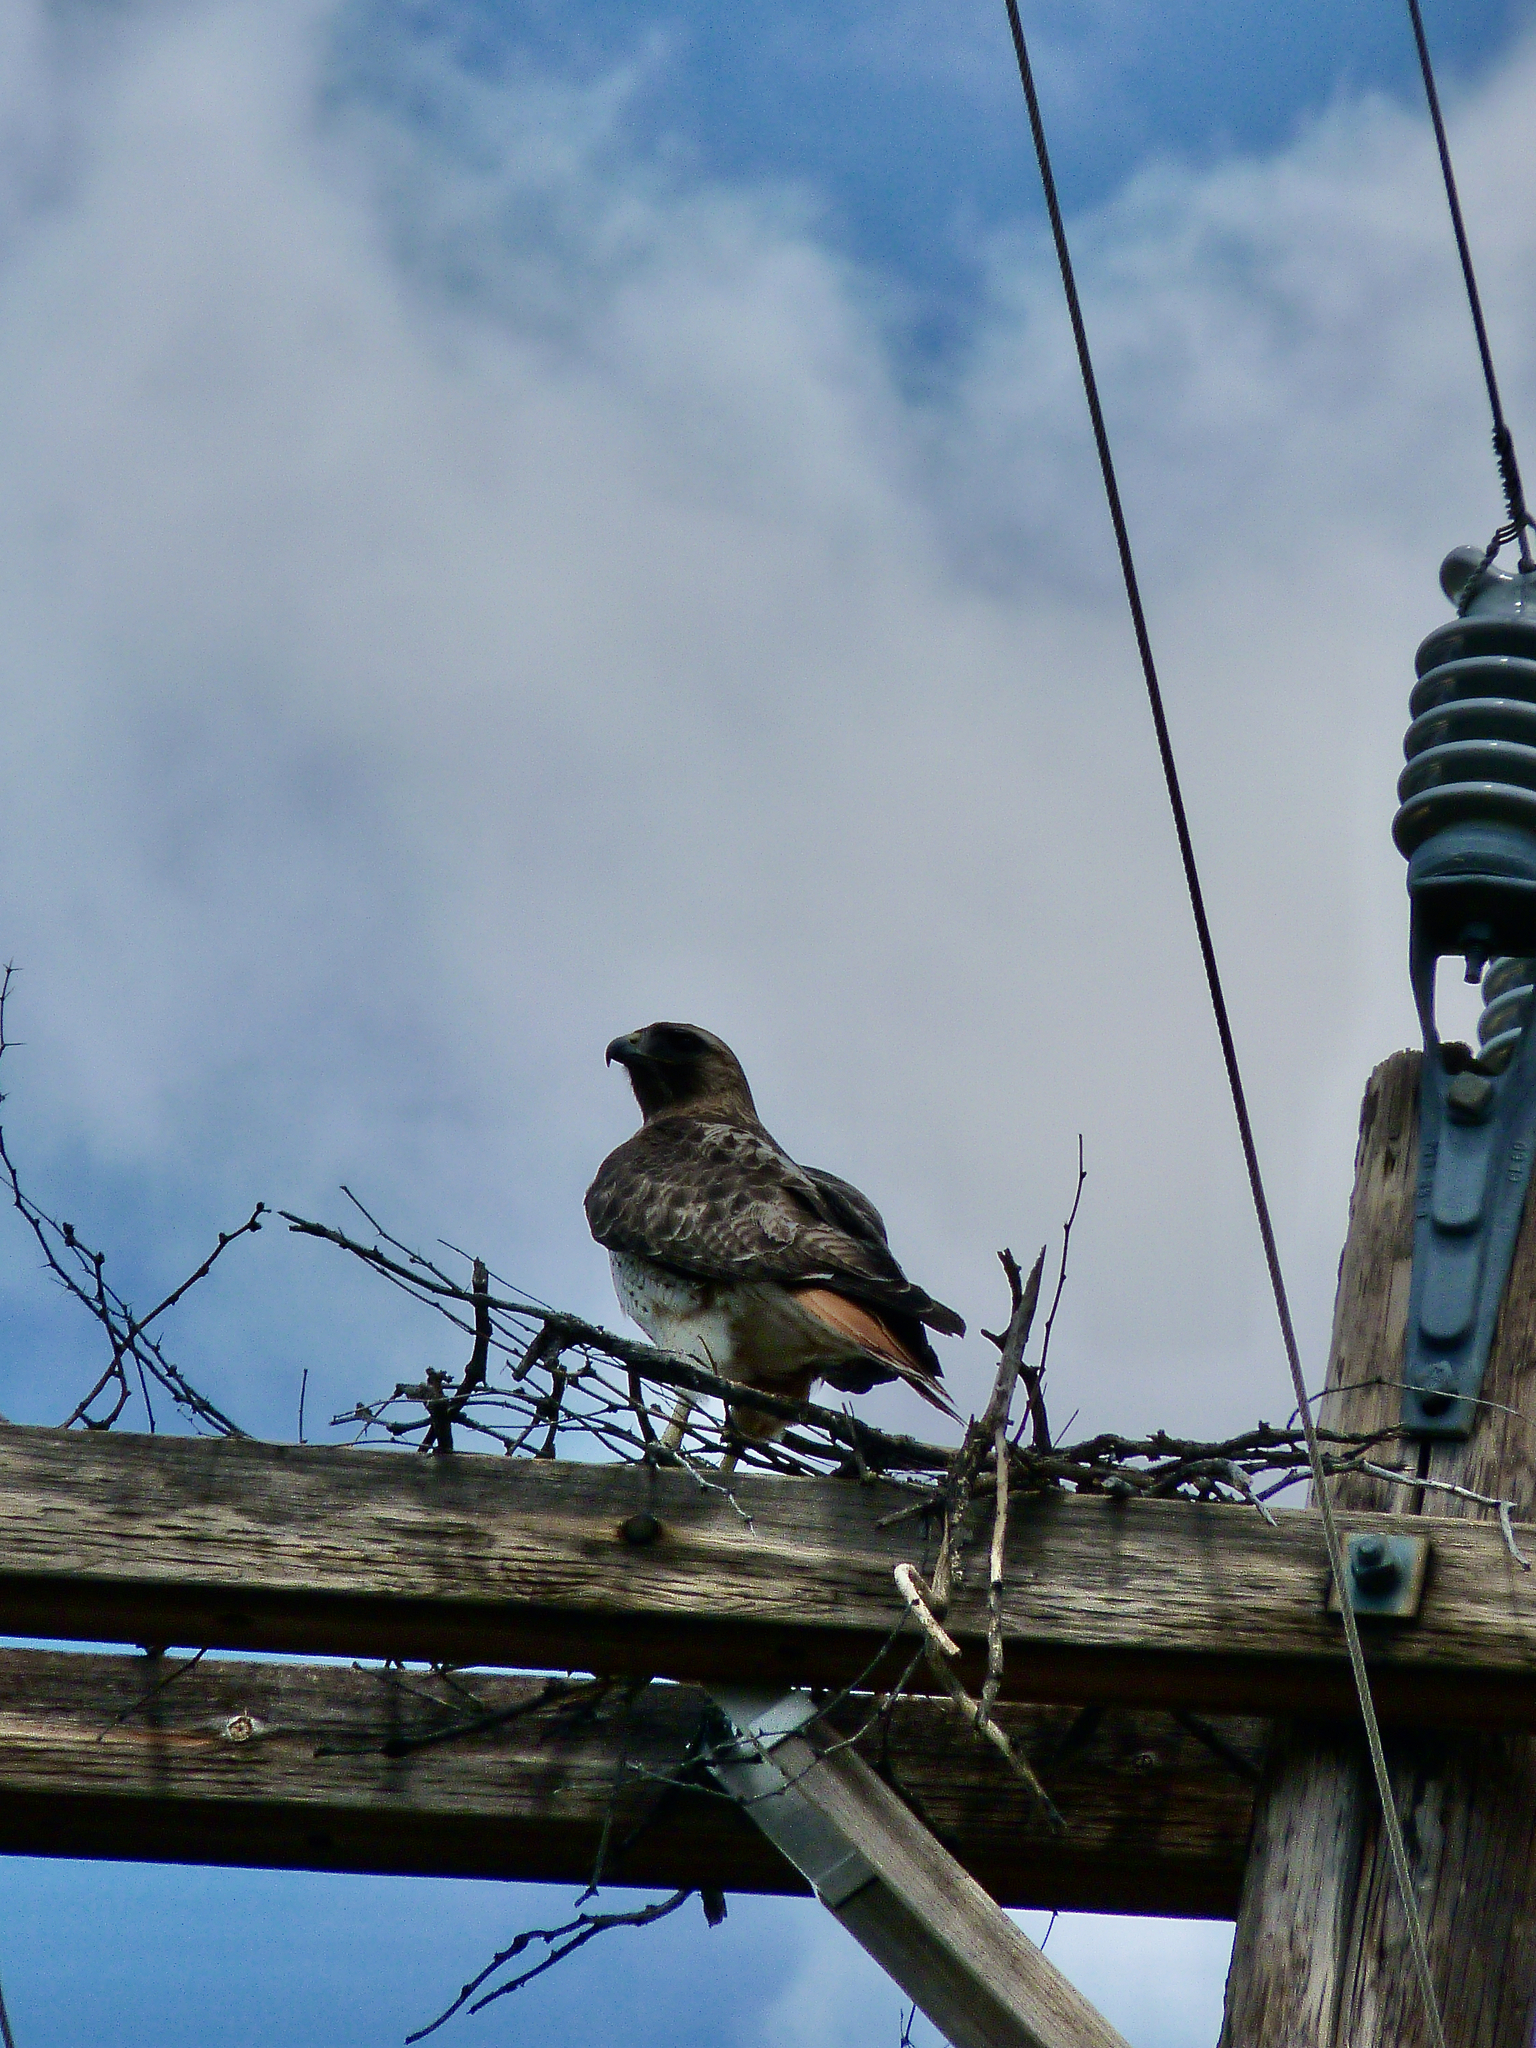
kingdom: Animalia
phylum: Chordata
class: Aves
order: Accipitriformes
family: Accipitridae
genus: Buteo
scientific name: Buteo jamaicensis
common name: Red-tailed hawk
